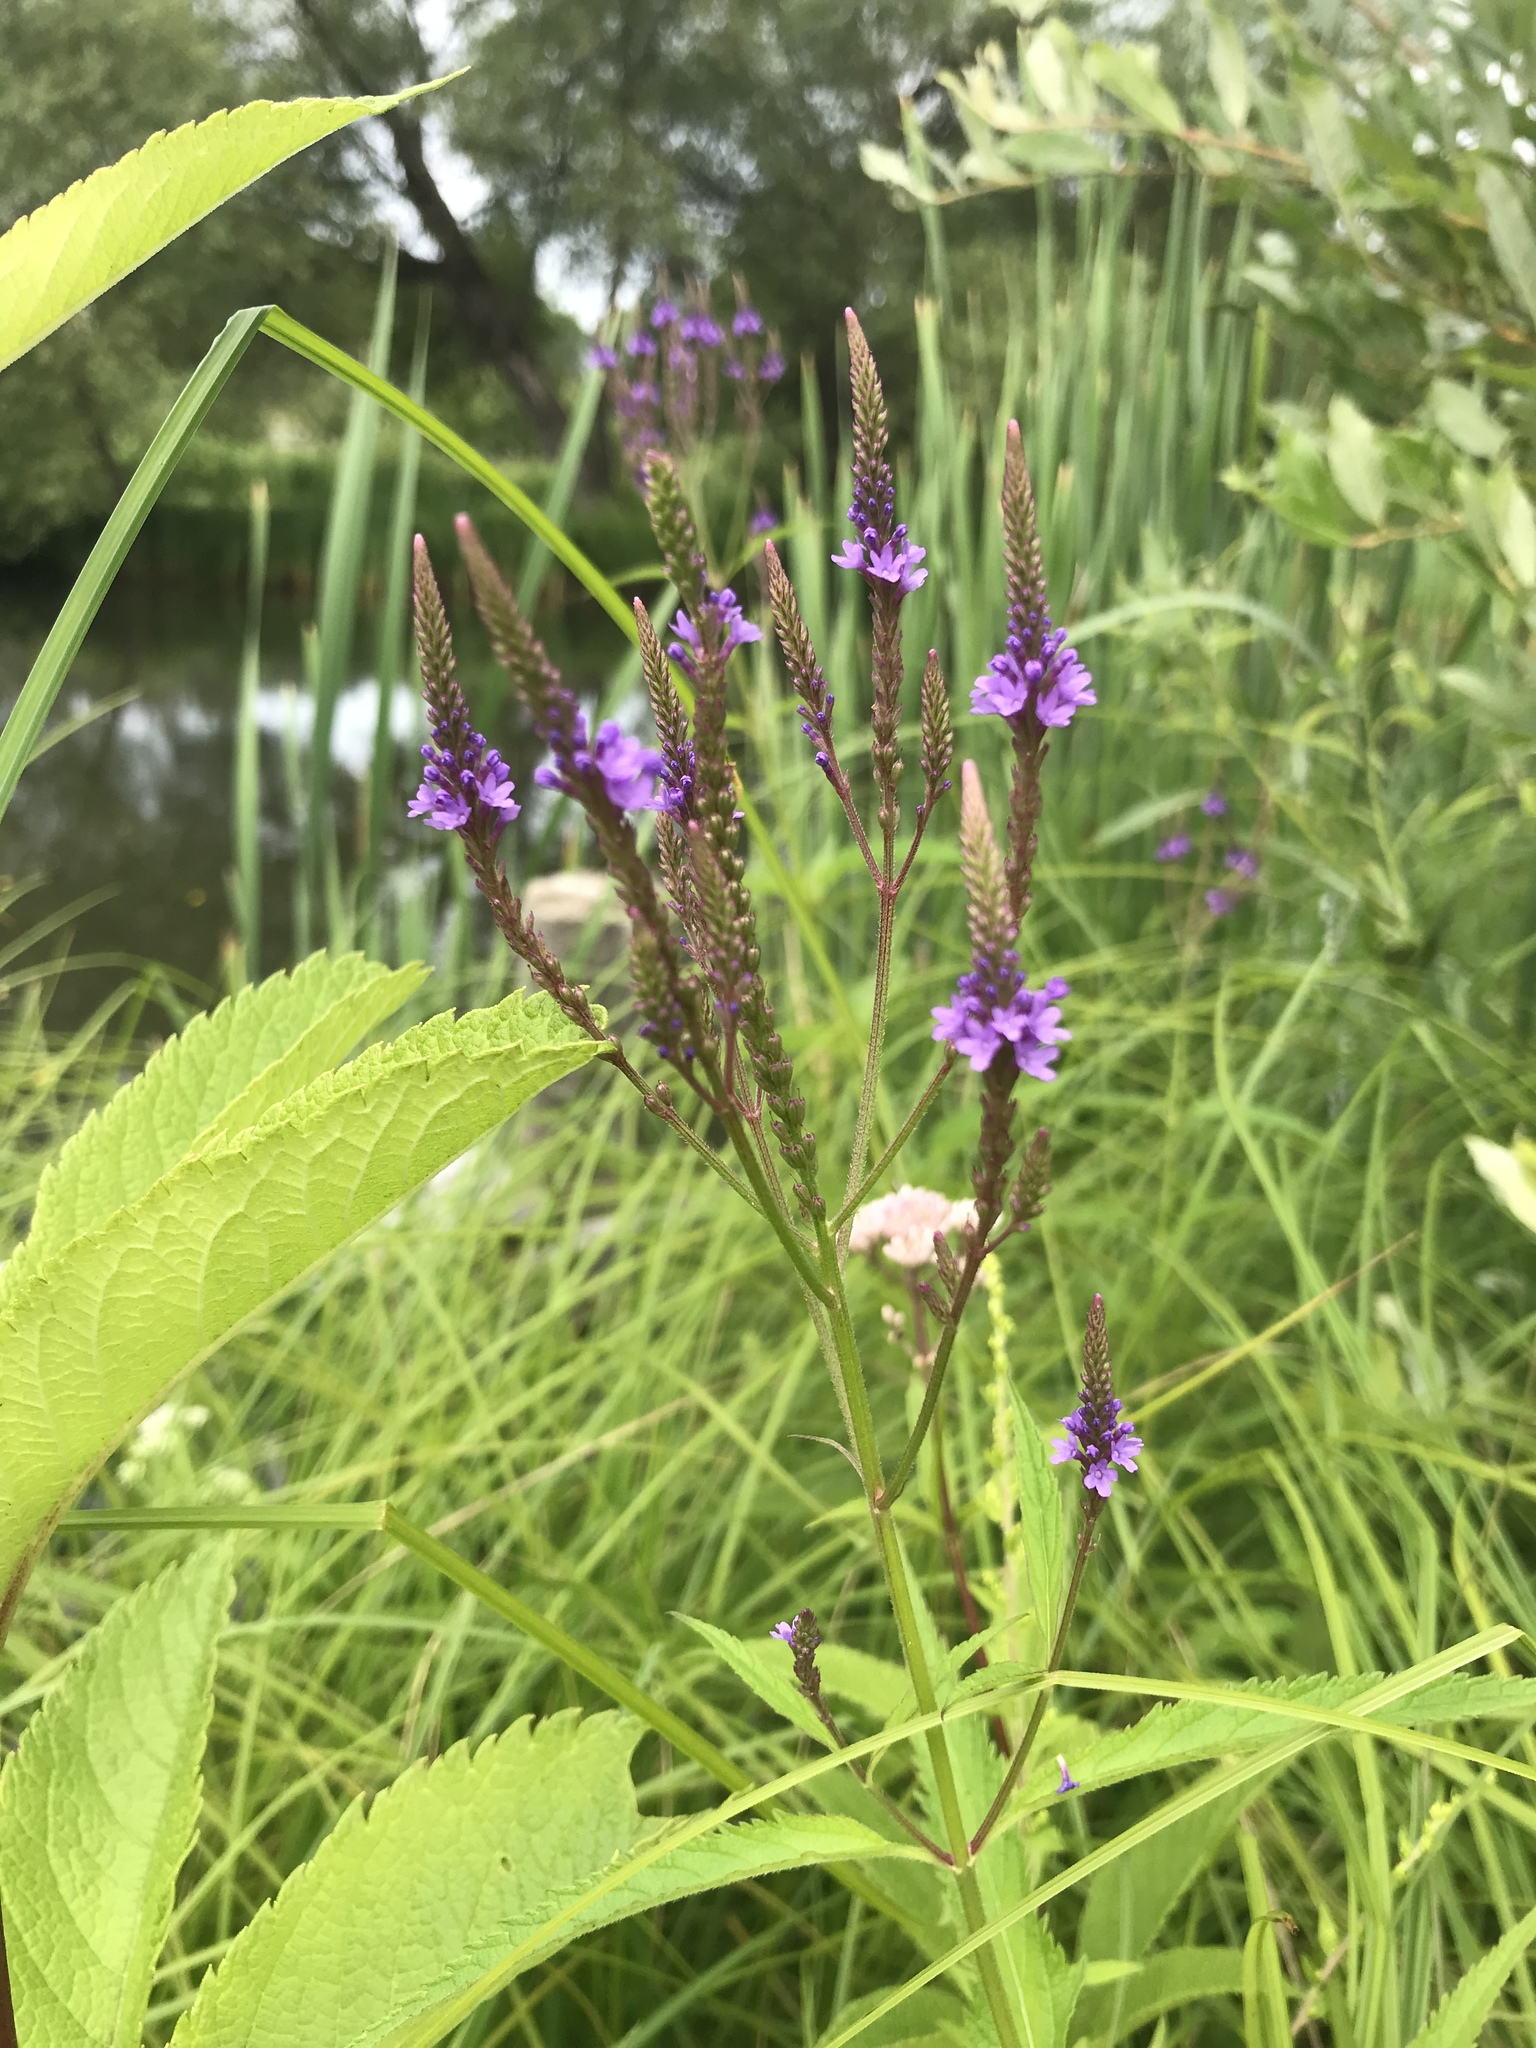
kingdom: Plantae
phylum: Tracheophyta
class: Magnoliopsida
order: Lamiales
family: Verbenaceae
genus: Verbena
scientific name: Verbena hastata
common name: American blue vervain
